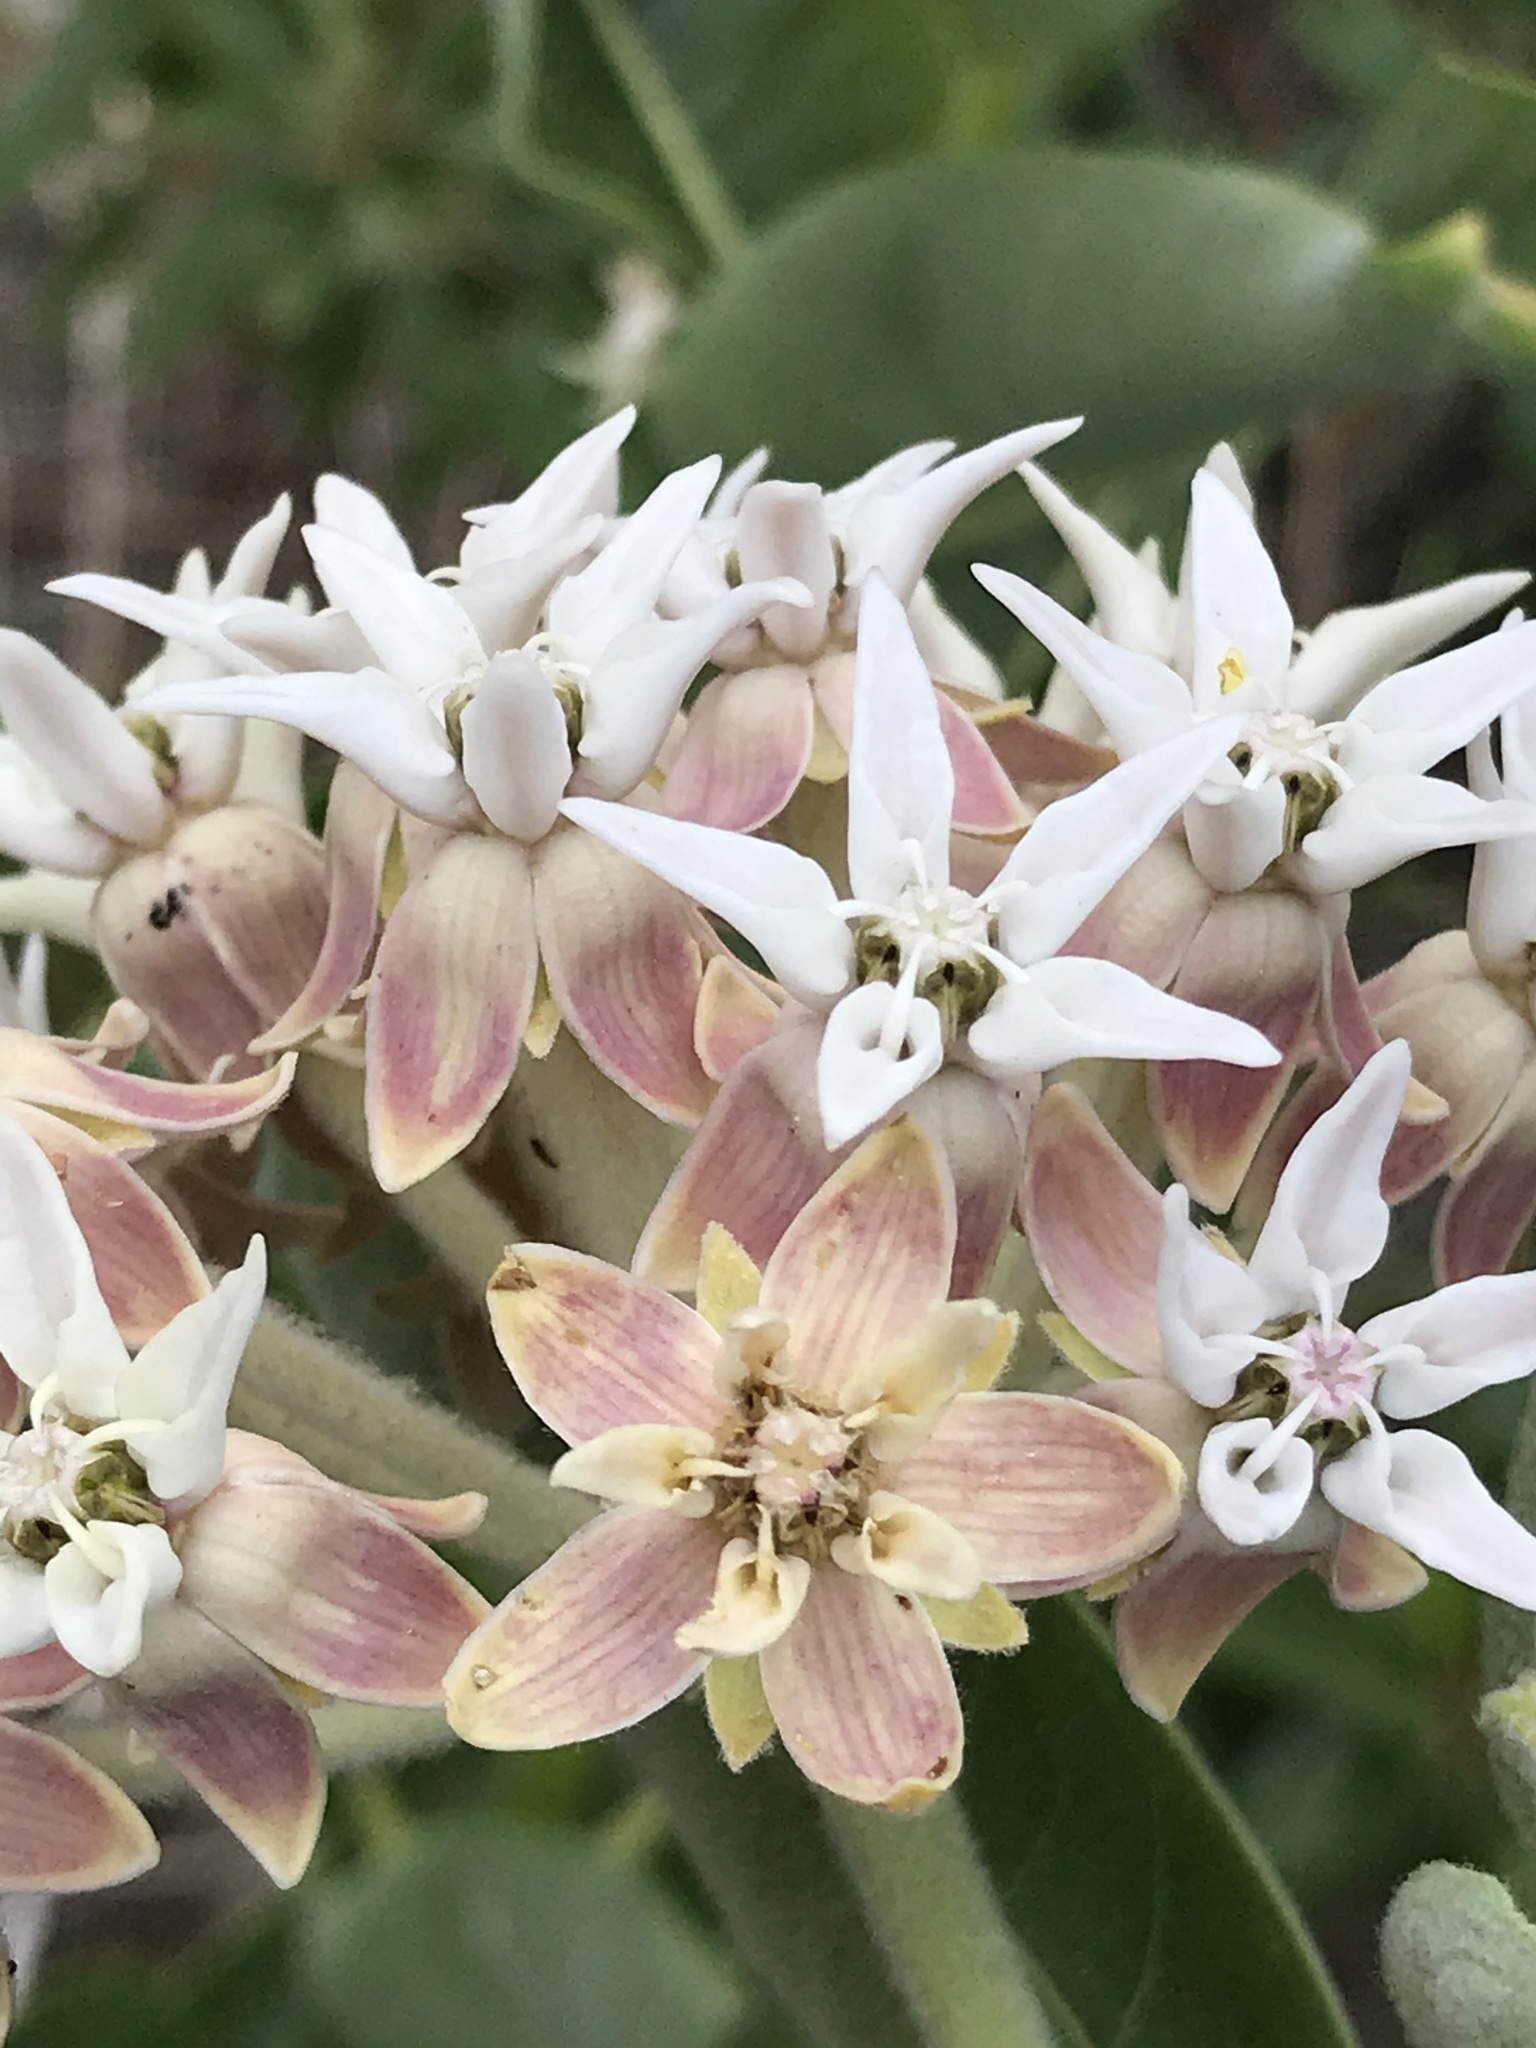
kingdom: Plantae
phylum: Tracheophyta
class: Magnoliopsida
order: Gentianales
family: Apocynaceae
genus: Asclepias
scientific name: Asclepias speciosa
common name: Showy milkweed
